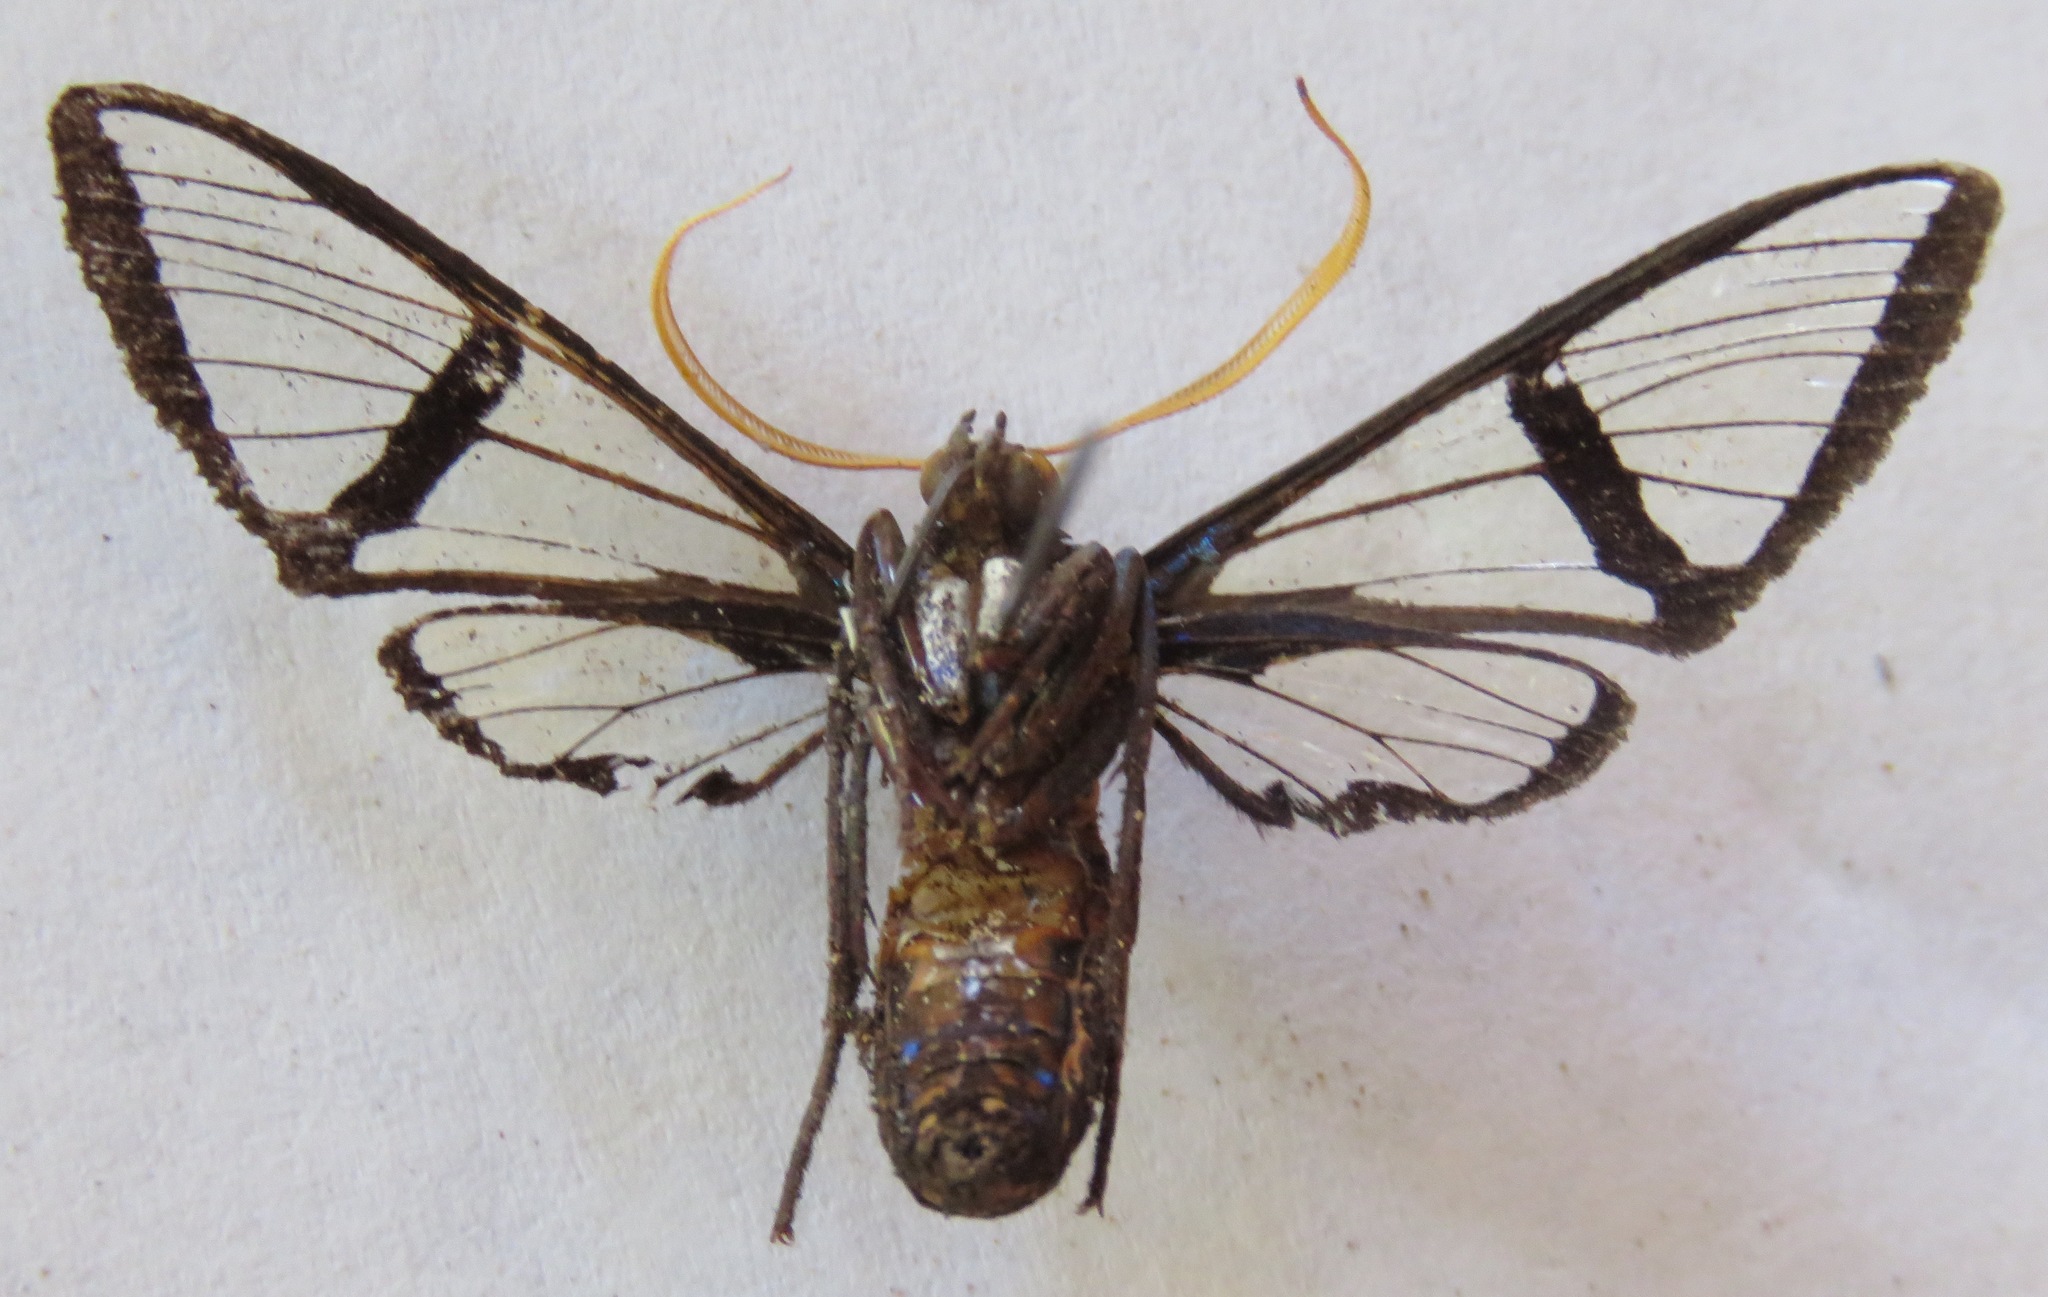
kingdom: Animalia
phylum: Arthropoda
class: Insecta
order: Lepidoptera
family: Erebidae
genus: Nyridela
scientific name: Nyridela xanthocera
